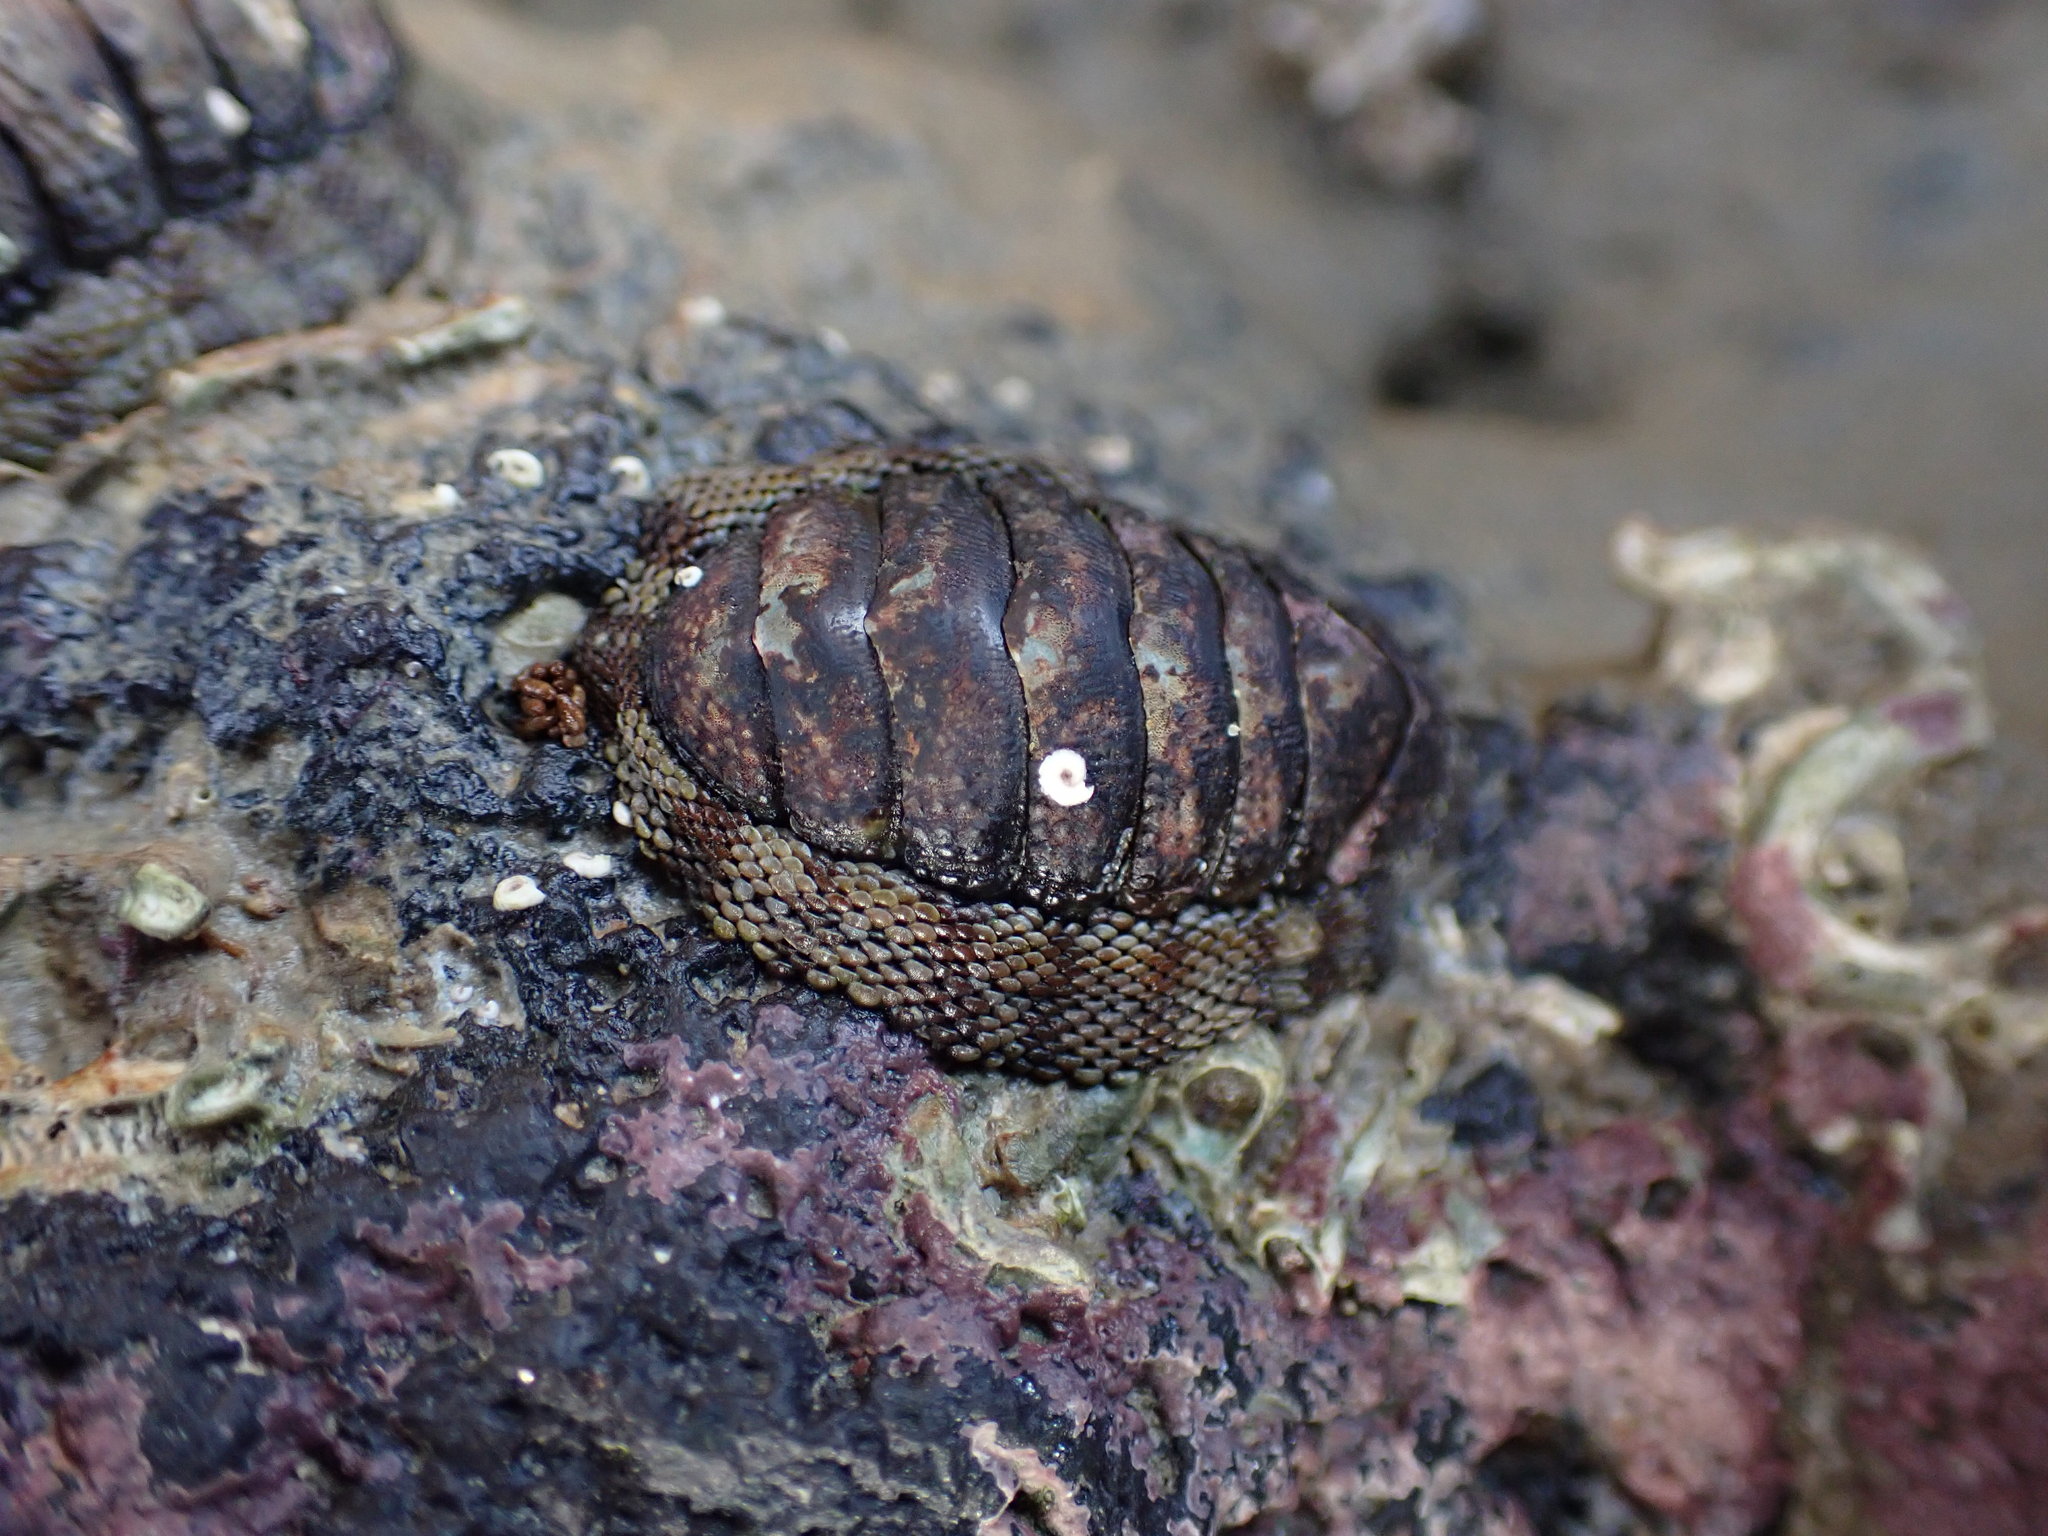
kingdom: Animalia
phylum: Mollusca
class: Polyplacophora
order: Chitonida
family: Chitonidae
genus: Sypharochiton
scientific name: Sypharochiton pelliserpentis
